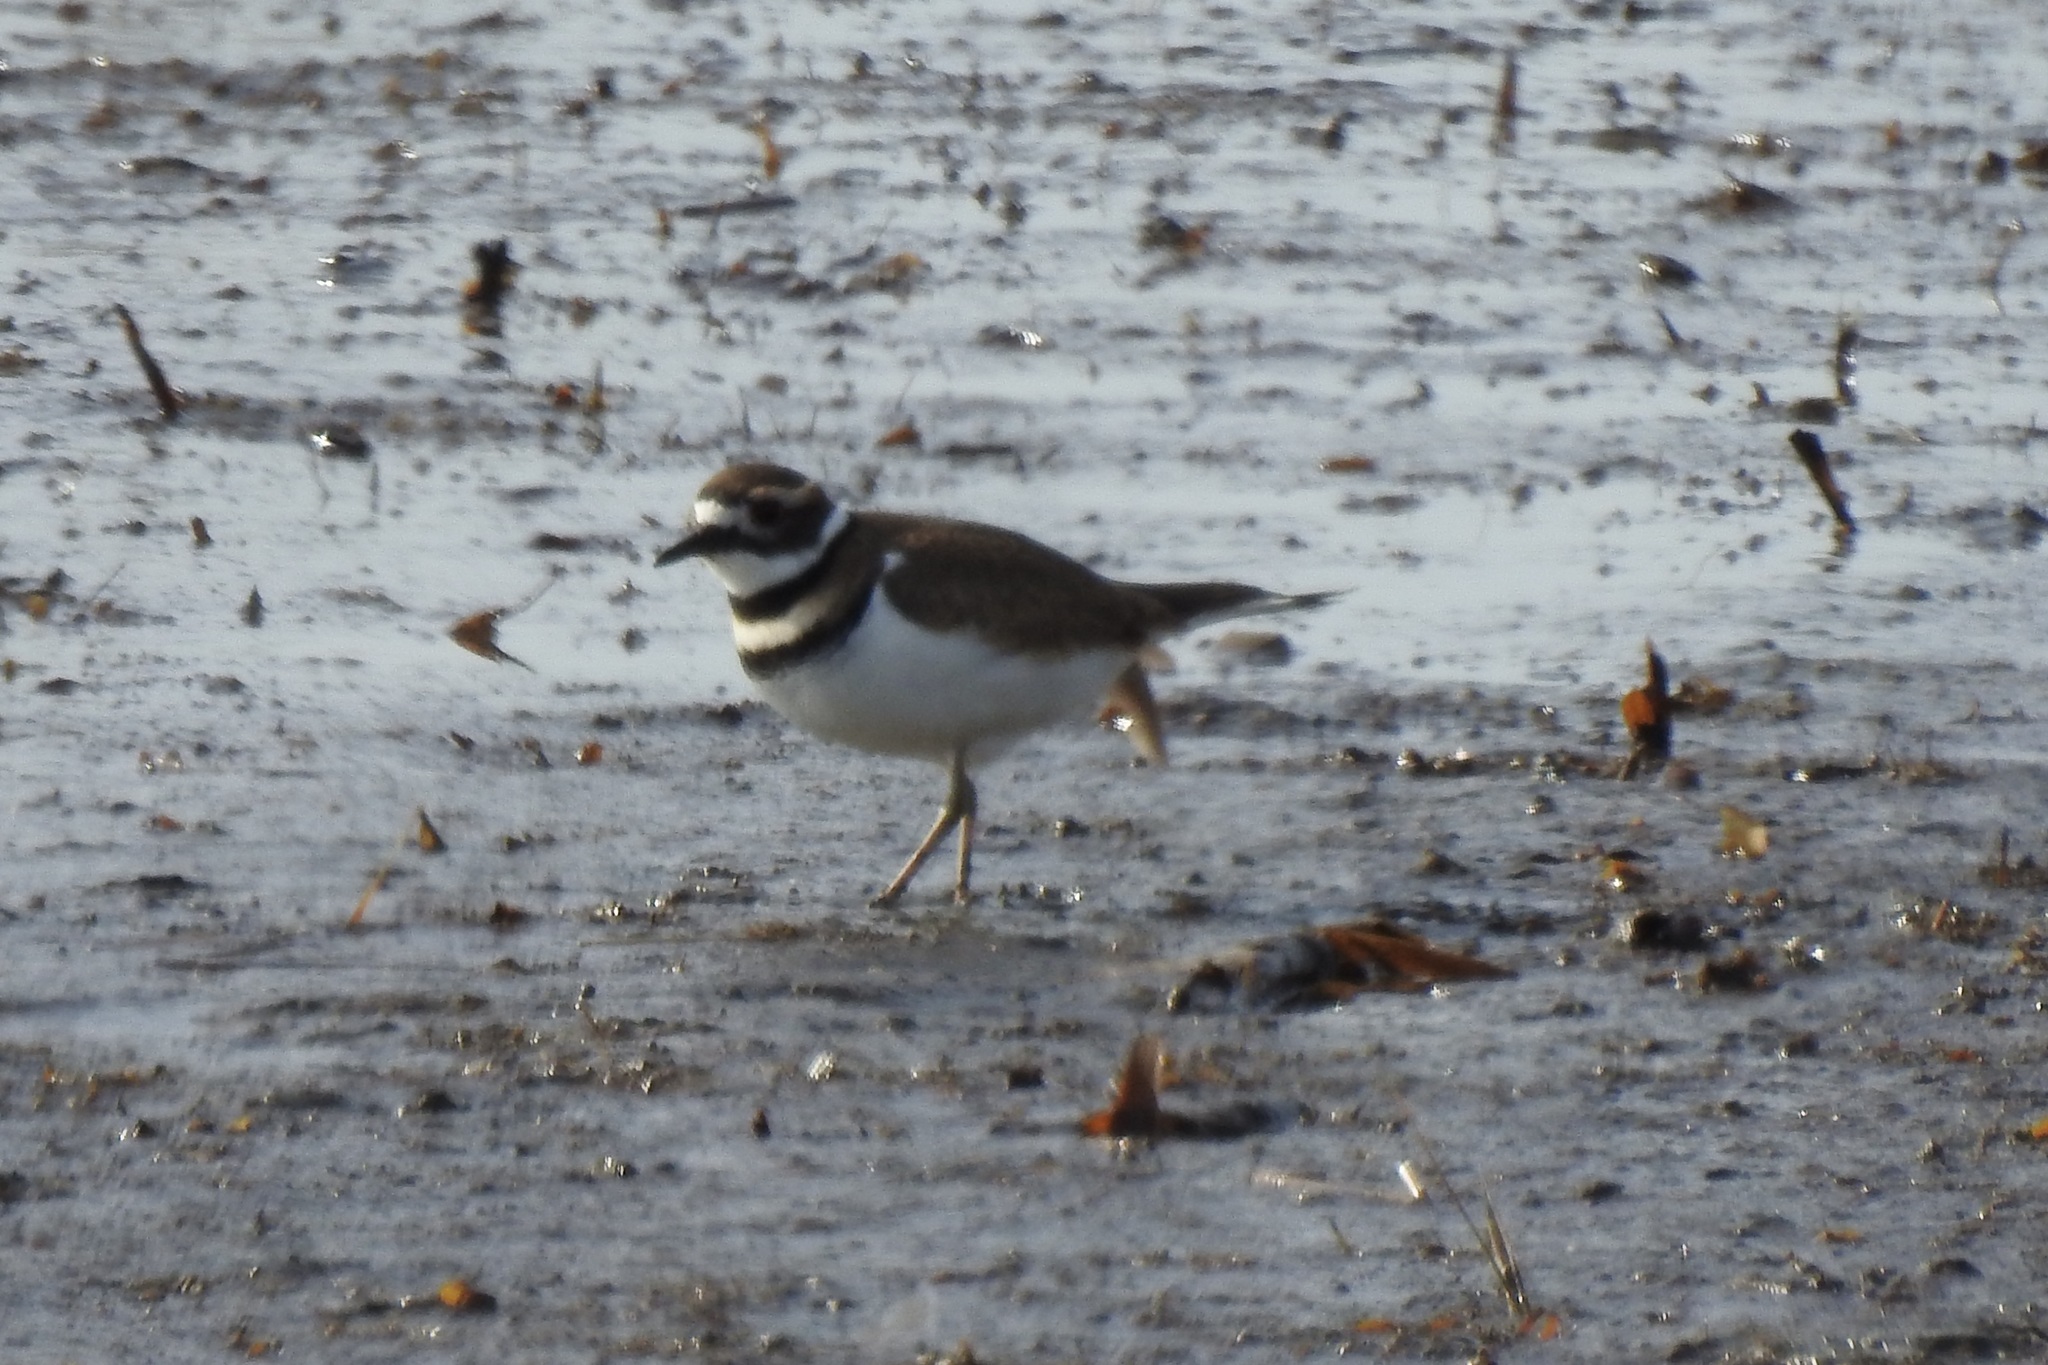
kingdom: Animalia
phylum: Chordata
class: Aves
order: Charadriiformes
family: Charadriidae
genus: Charadrius
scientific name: Charadrius vociferus
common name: Killdeer
